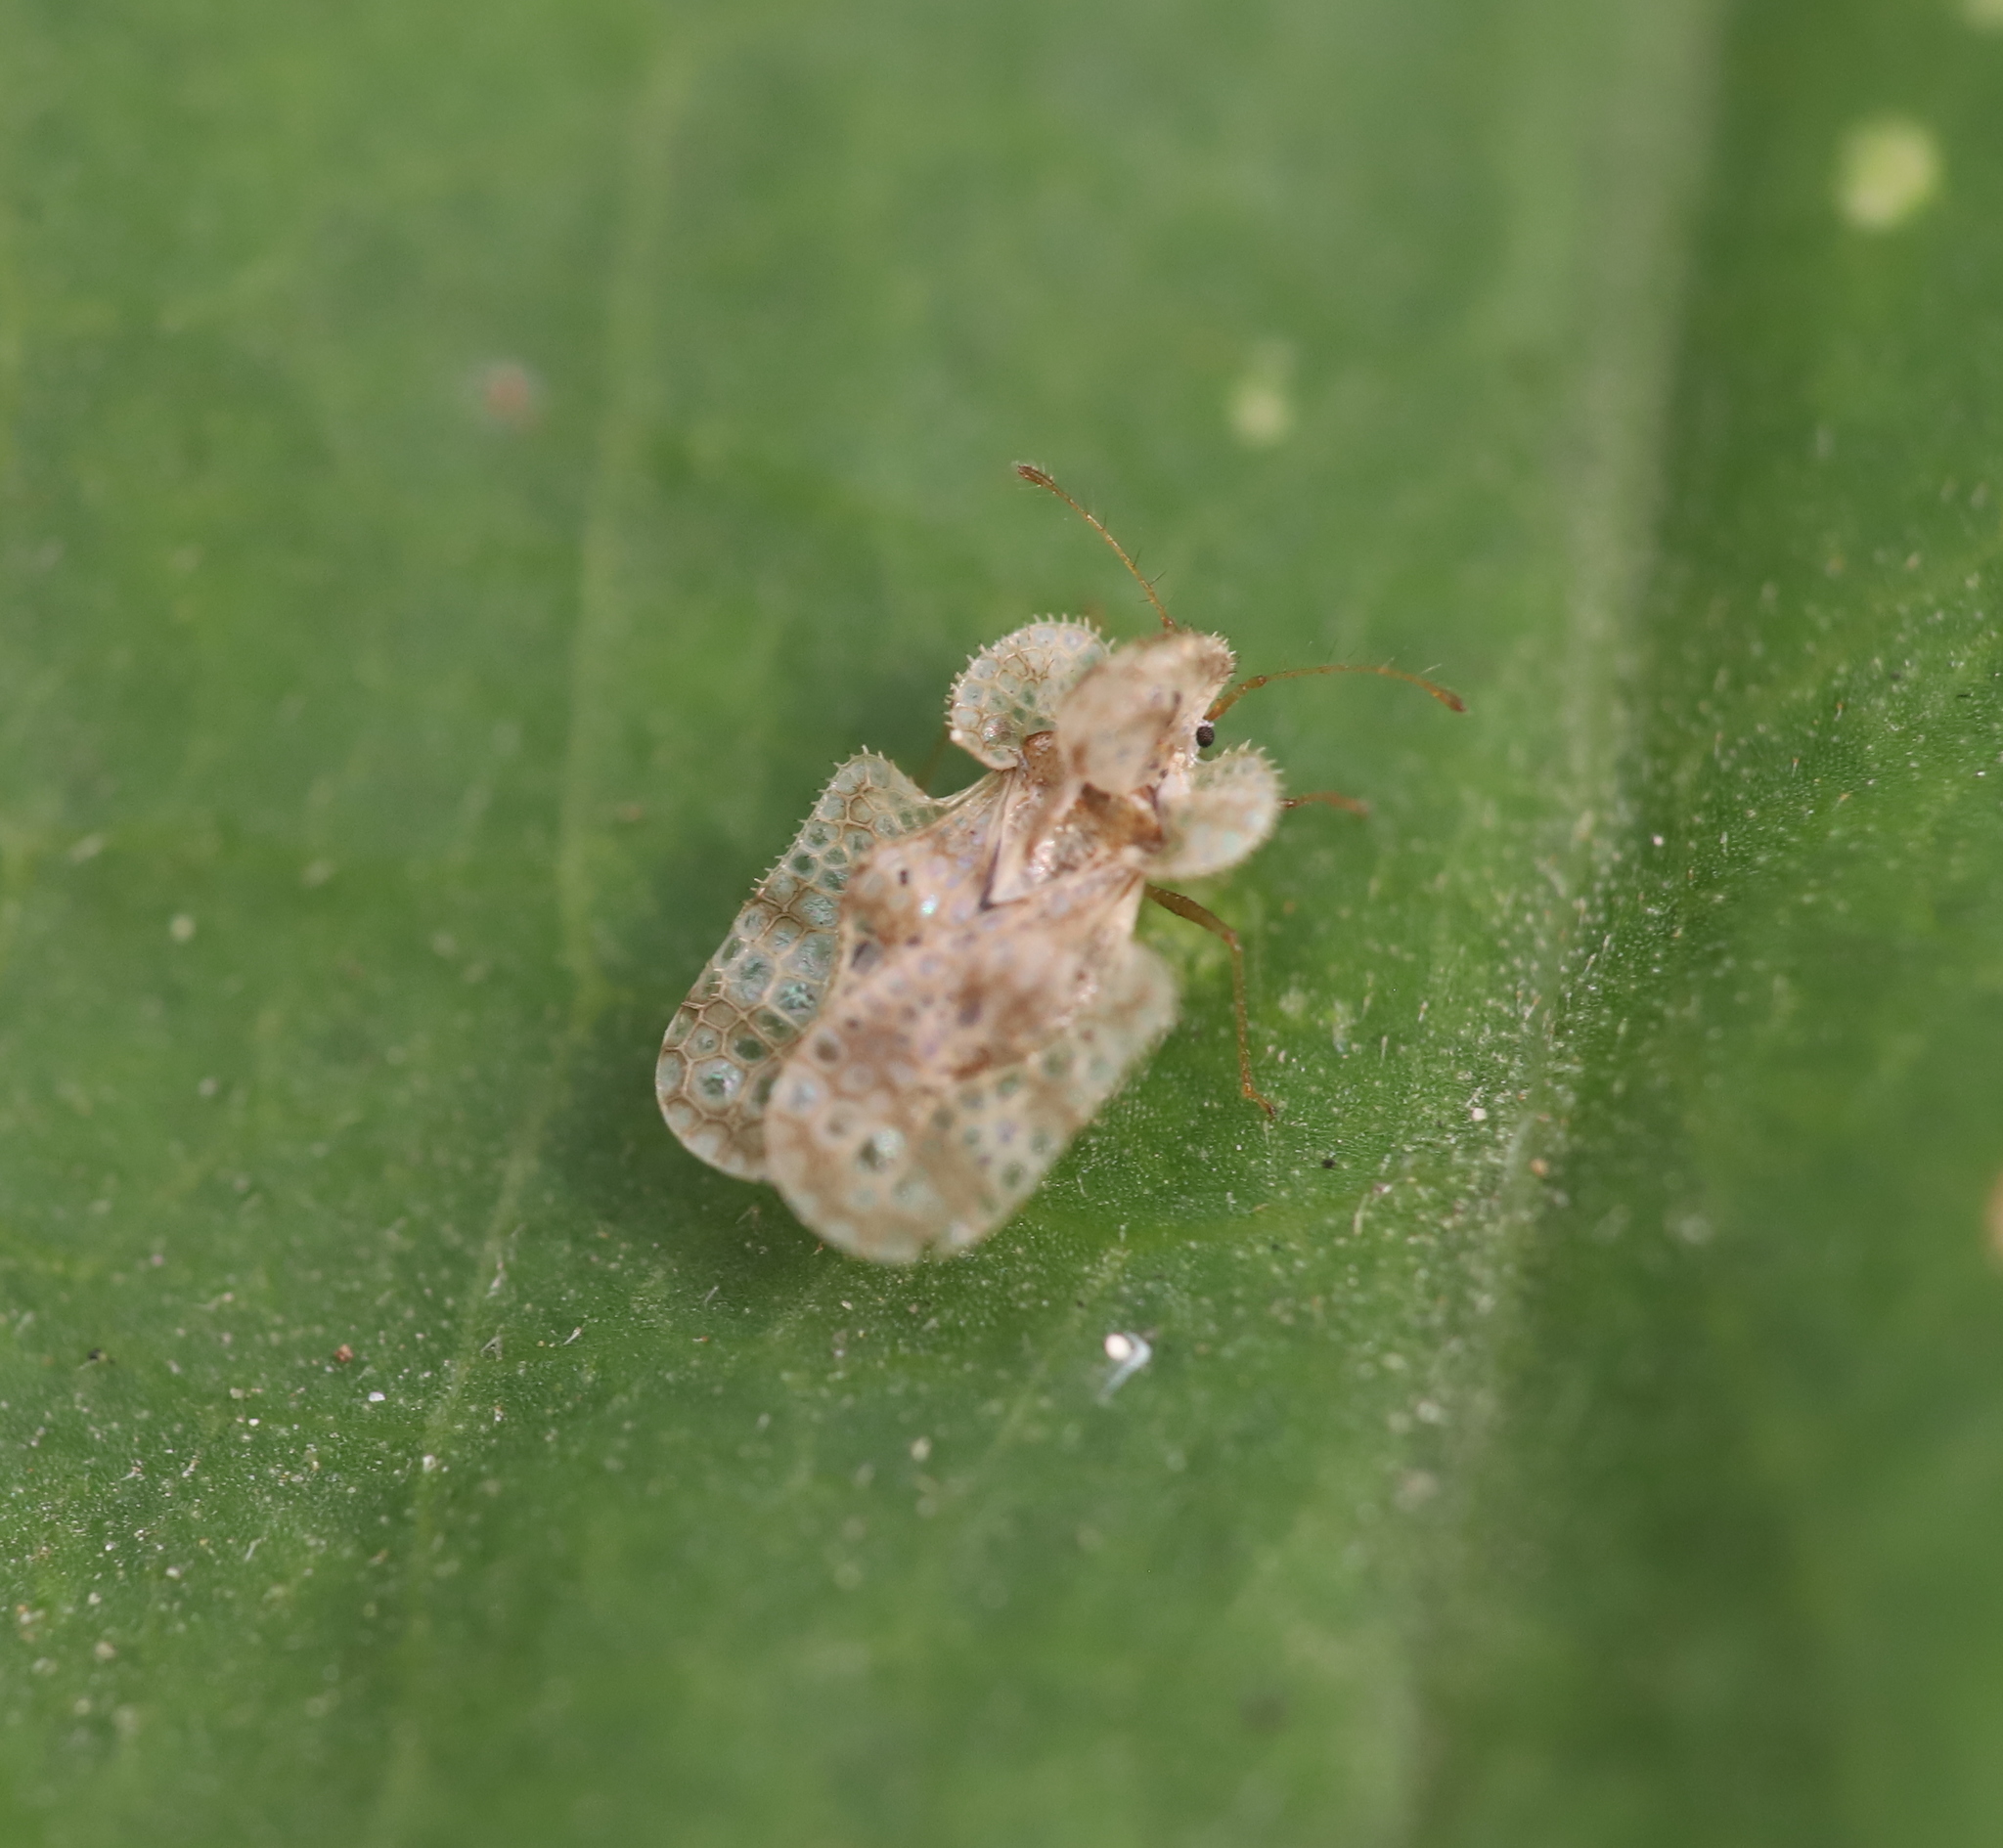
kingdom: Animalia
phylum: Arthropoda
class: Insecta
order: Hemiptera
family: Tingidae
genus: Corythucha
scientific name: Corythucha marmorata
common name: Chrysanthemum lace bug
